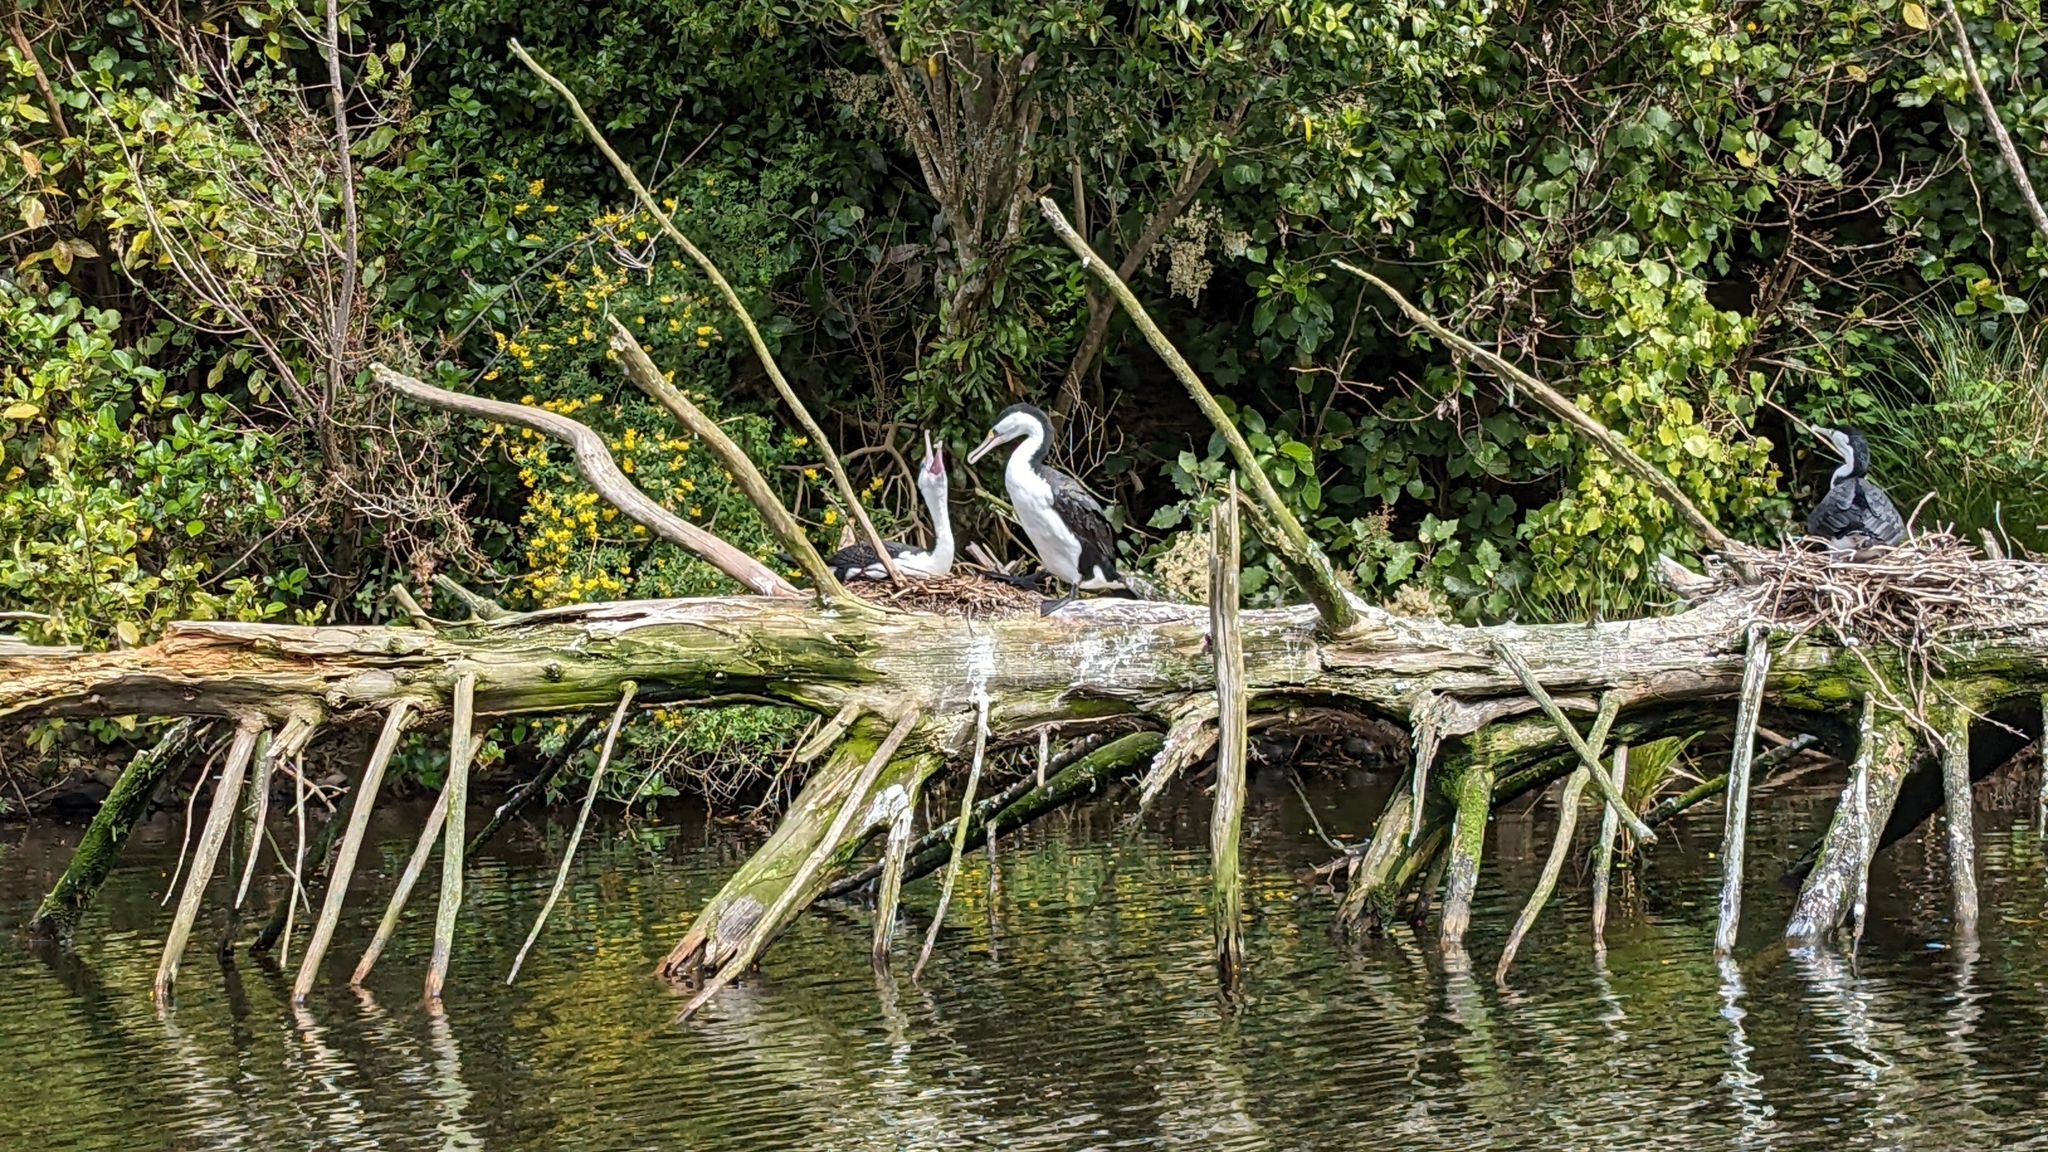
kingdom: Animalia
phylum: Chordata
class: Aves
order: Suliformes
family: Phalacrocoracidae
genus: Phalacrocorax
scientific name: Phalacrocorax varius
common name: Pied cormorant
